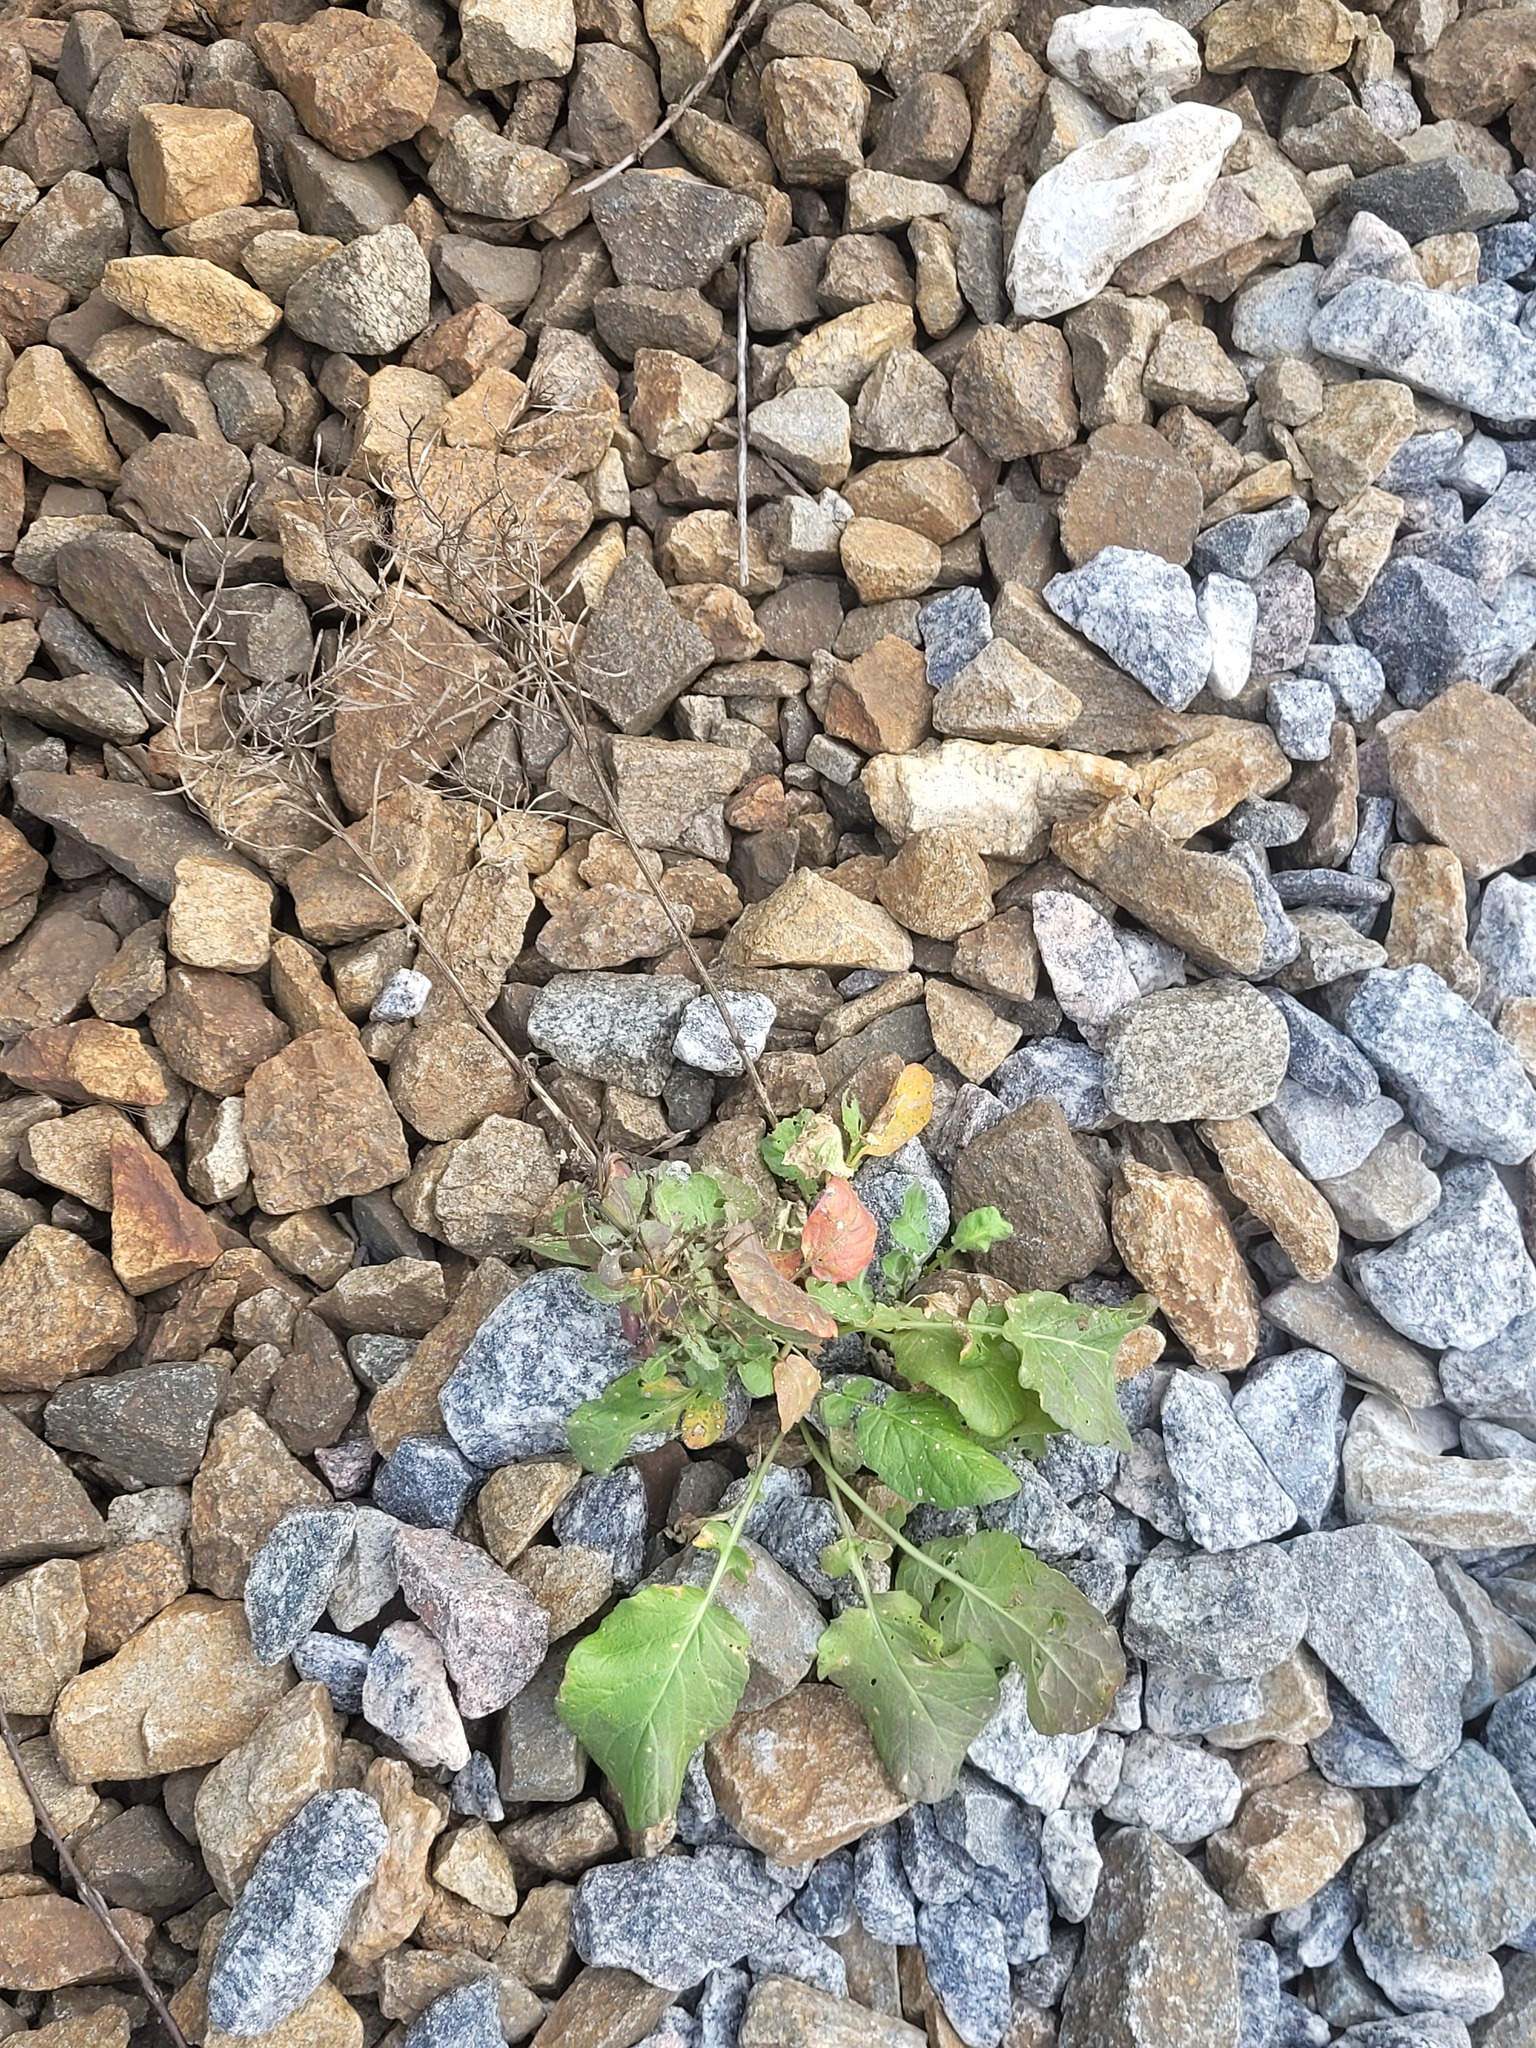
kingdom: Plantae
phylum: Tracheophyta
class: Magnoliopsida
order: Brassicales
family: Brassicaceae
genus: Barbarea
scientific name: Barbarea vulgaris
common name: Cressy-greens
